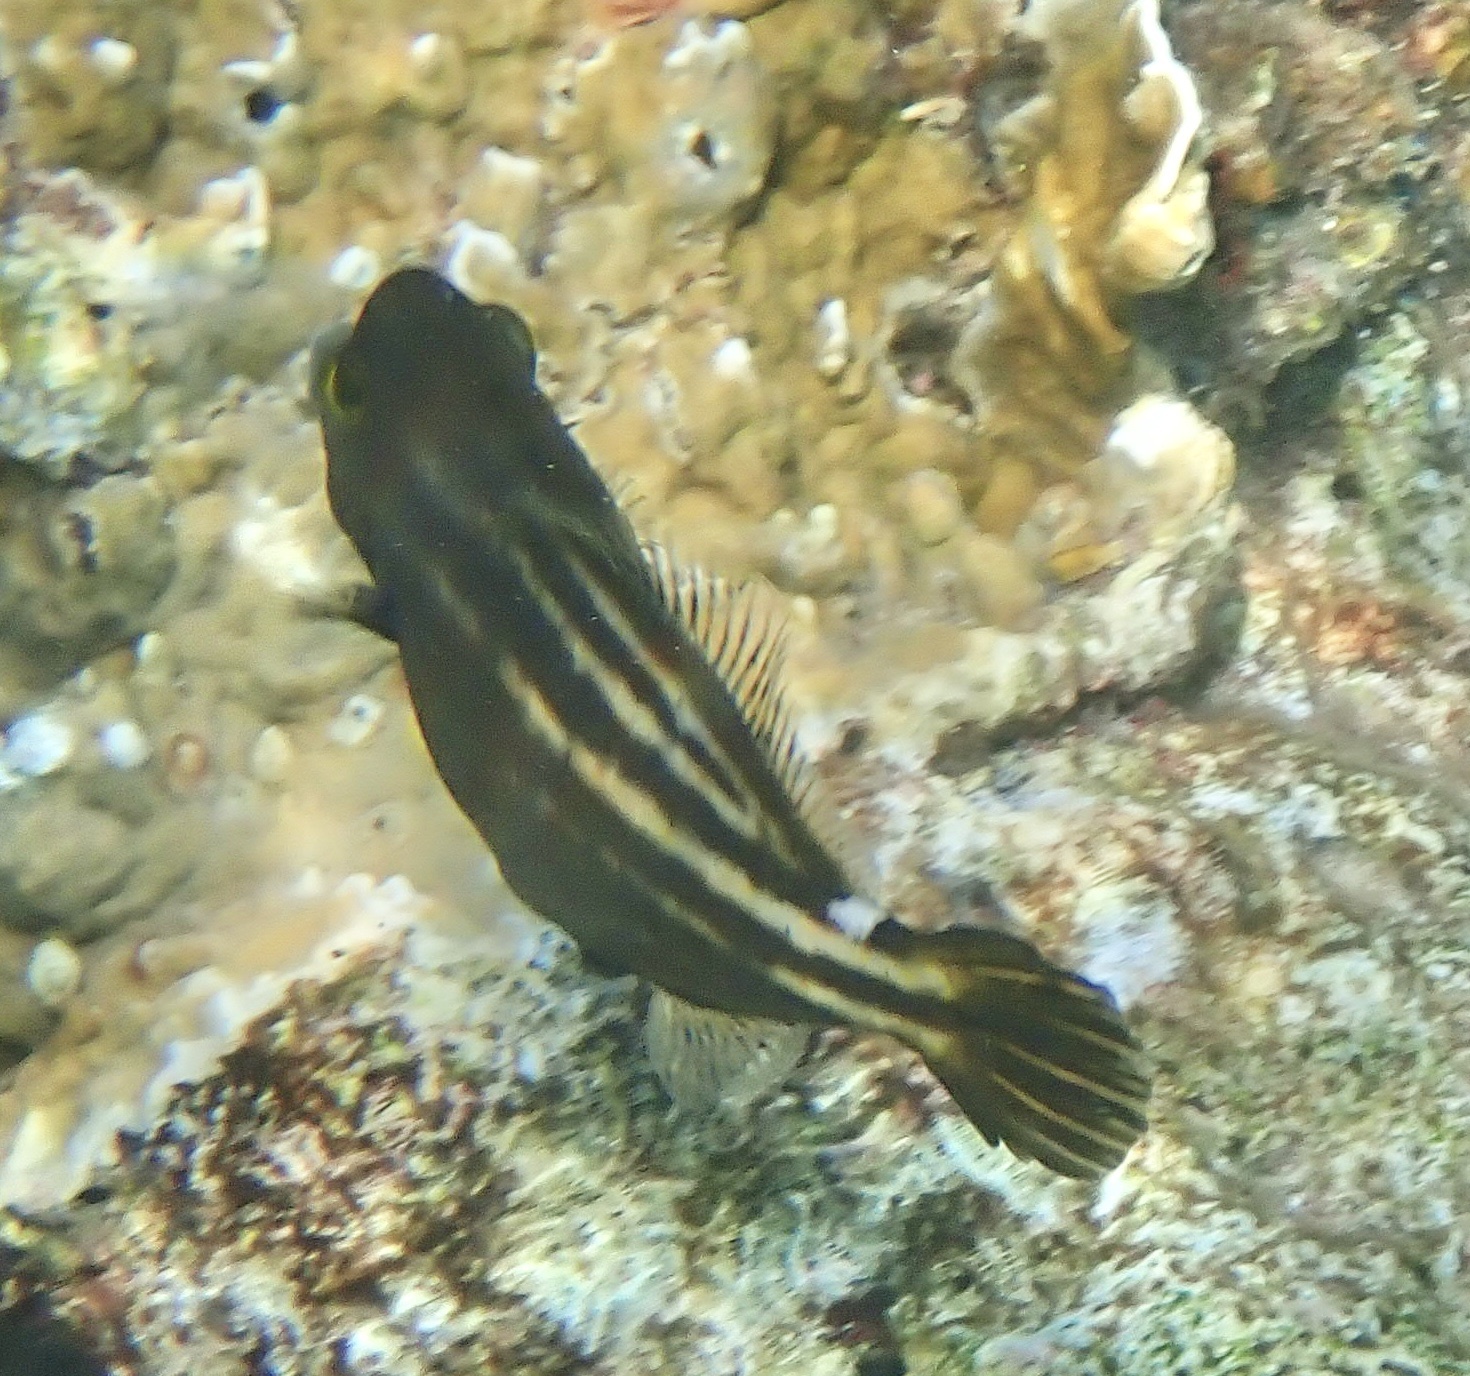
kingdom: Animalia
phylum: Chordata
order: Tetraodontiformes
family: Monacanthidae
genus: Cantherhines
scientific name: Cantherhines pullus
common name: Orangespotted filefish
